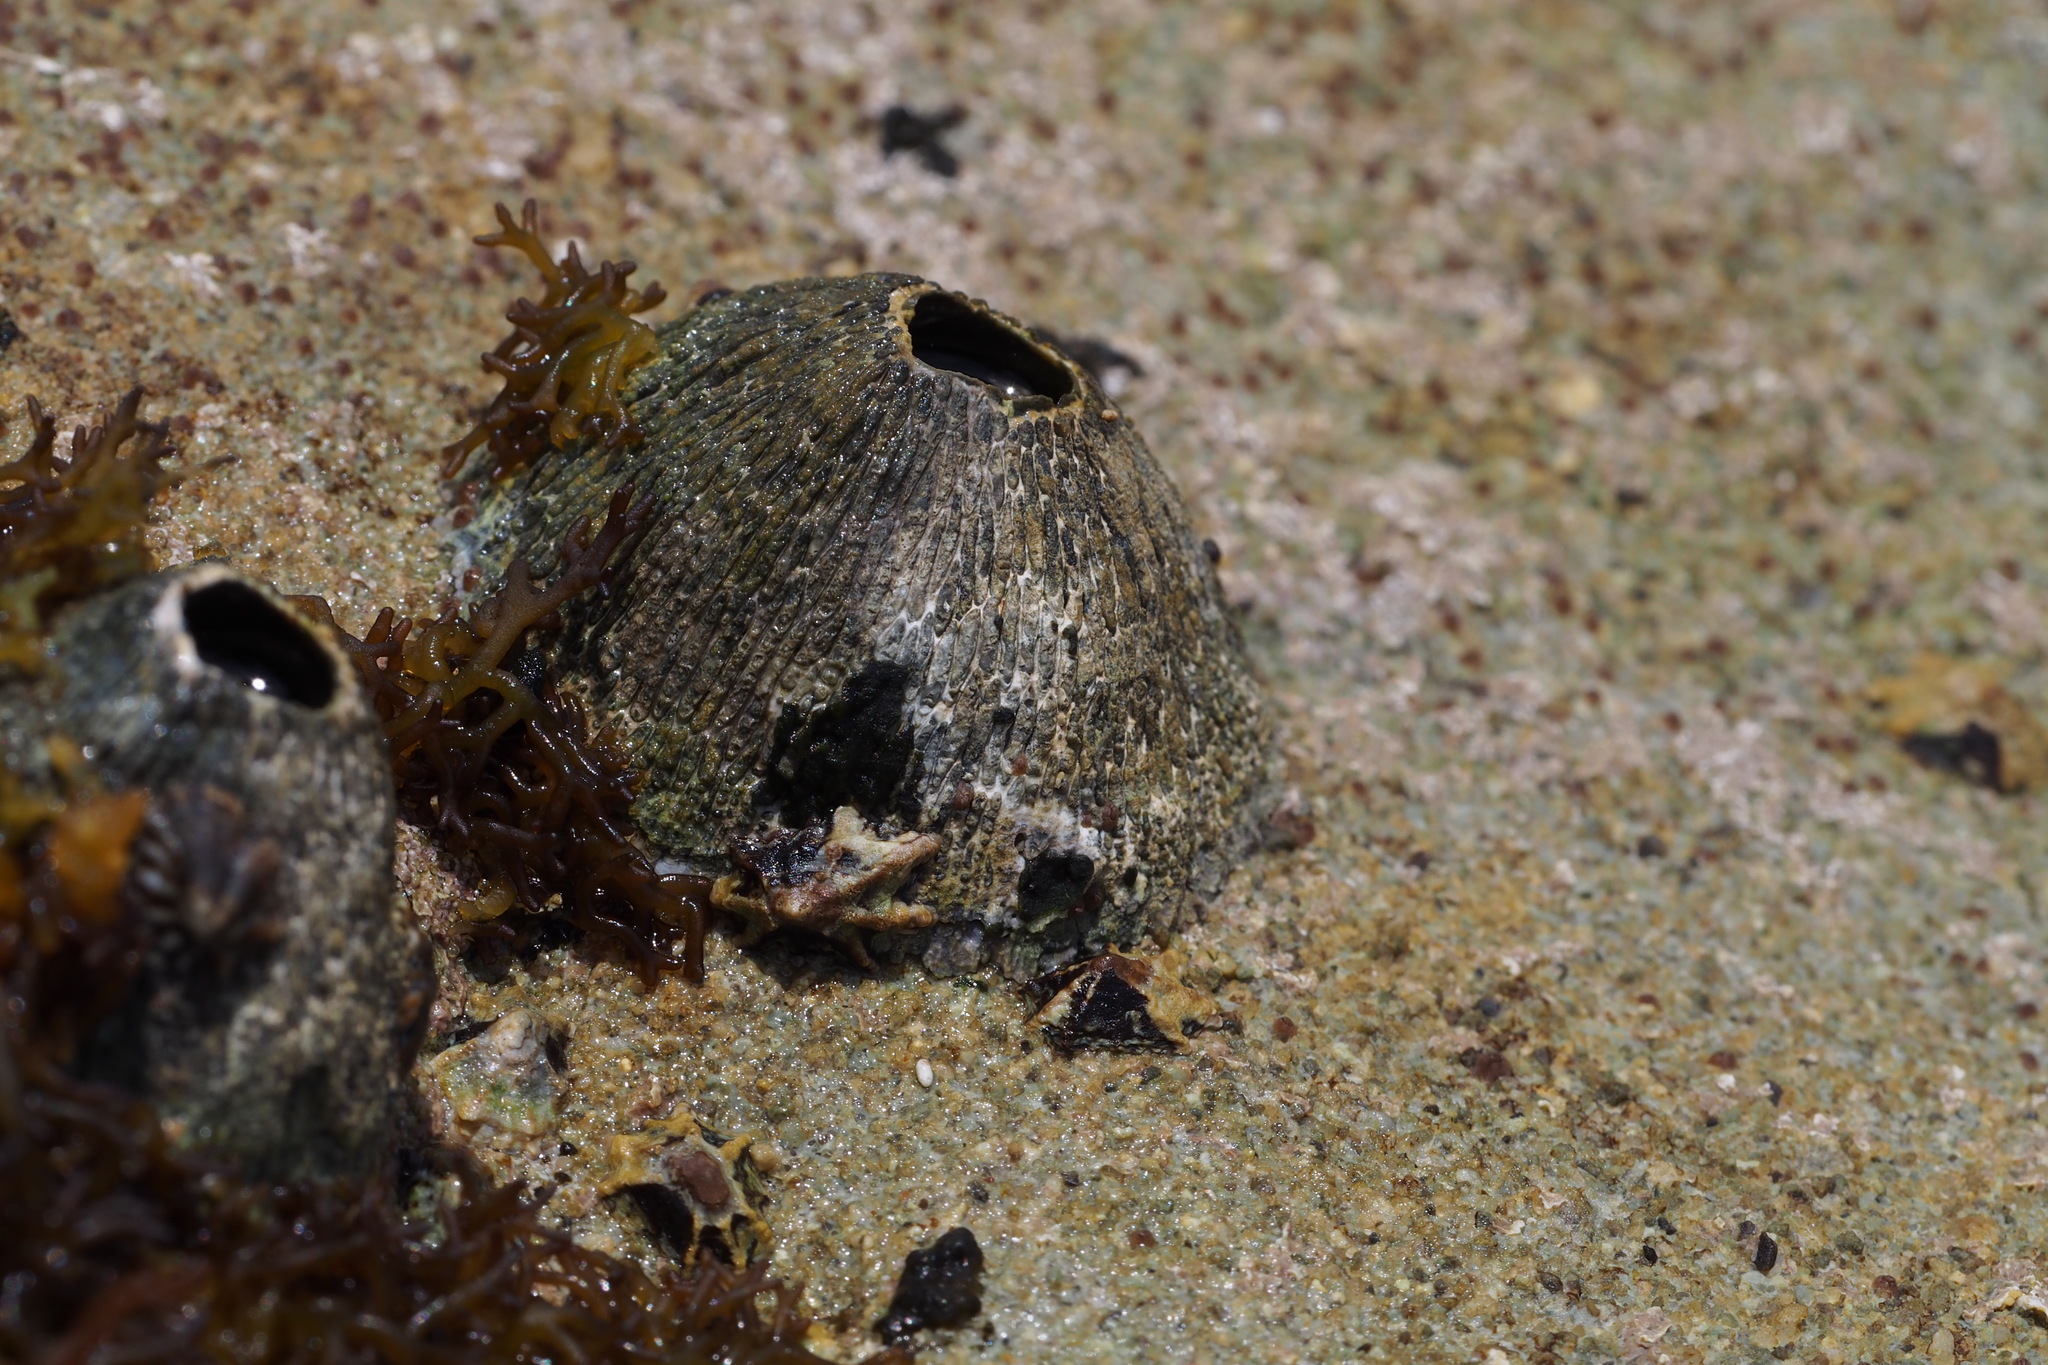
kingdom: Animalia
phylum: Arthropoda
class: Maxillopoda
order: Sessilia
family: Tetraclitidae
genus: Tetraclita
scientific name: Tetraclita squamosa
